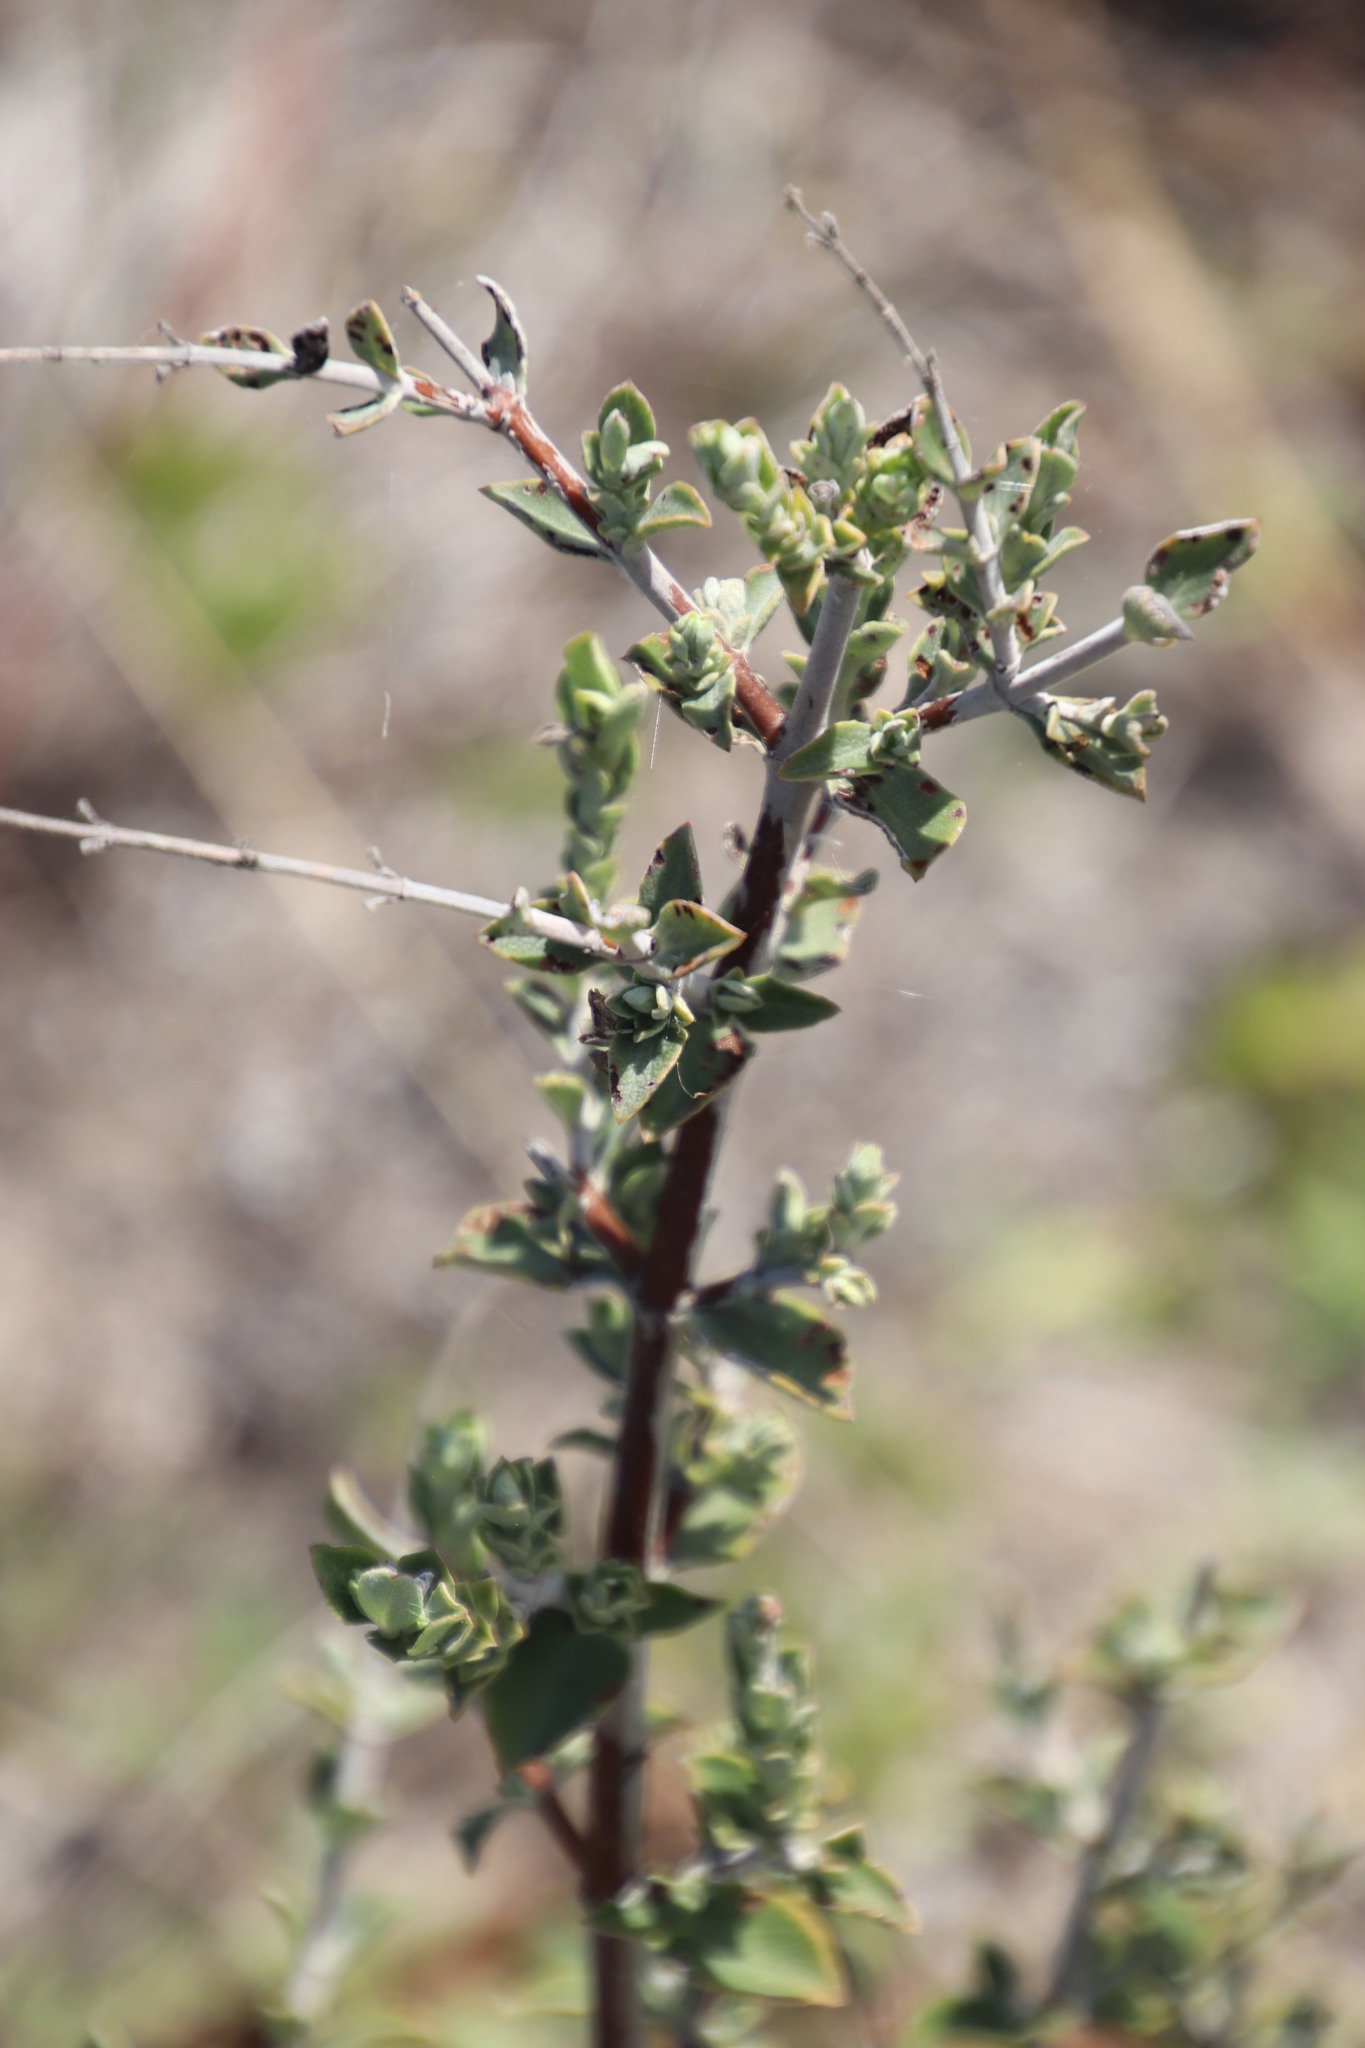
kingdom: Plantae
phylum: Tracheophyta
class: Magnoliopsida
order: Lamiales
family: Lamiaceae
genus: Salvia
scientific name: Salvia africana
